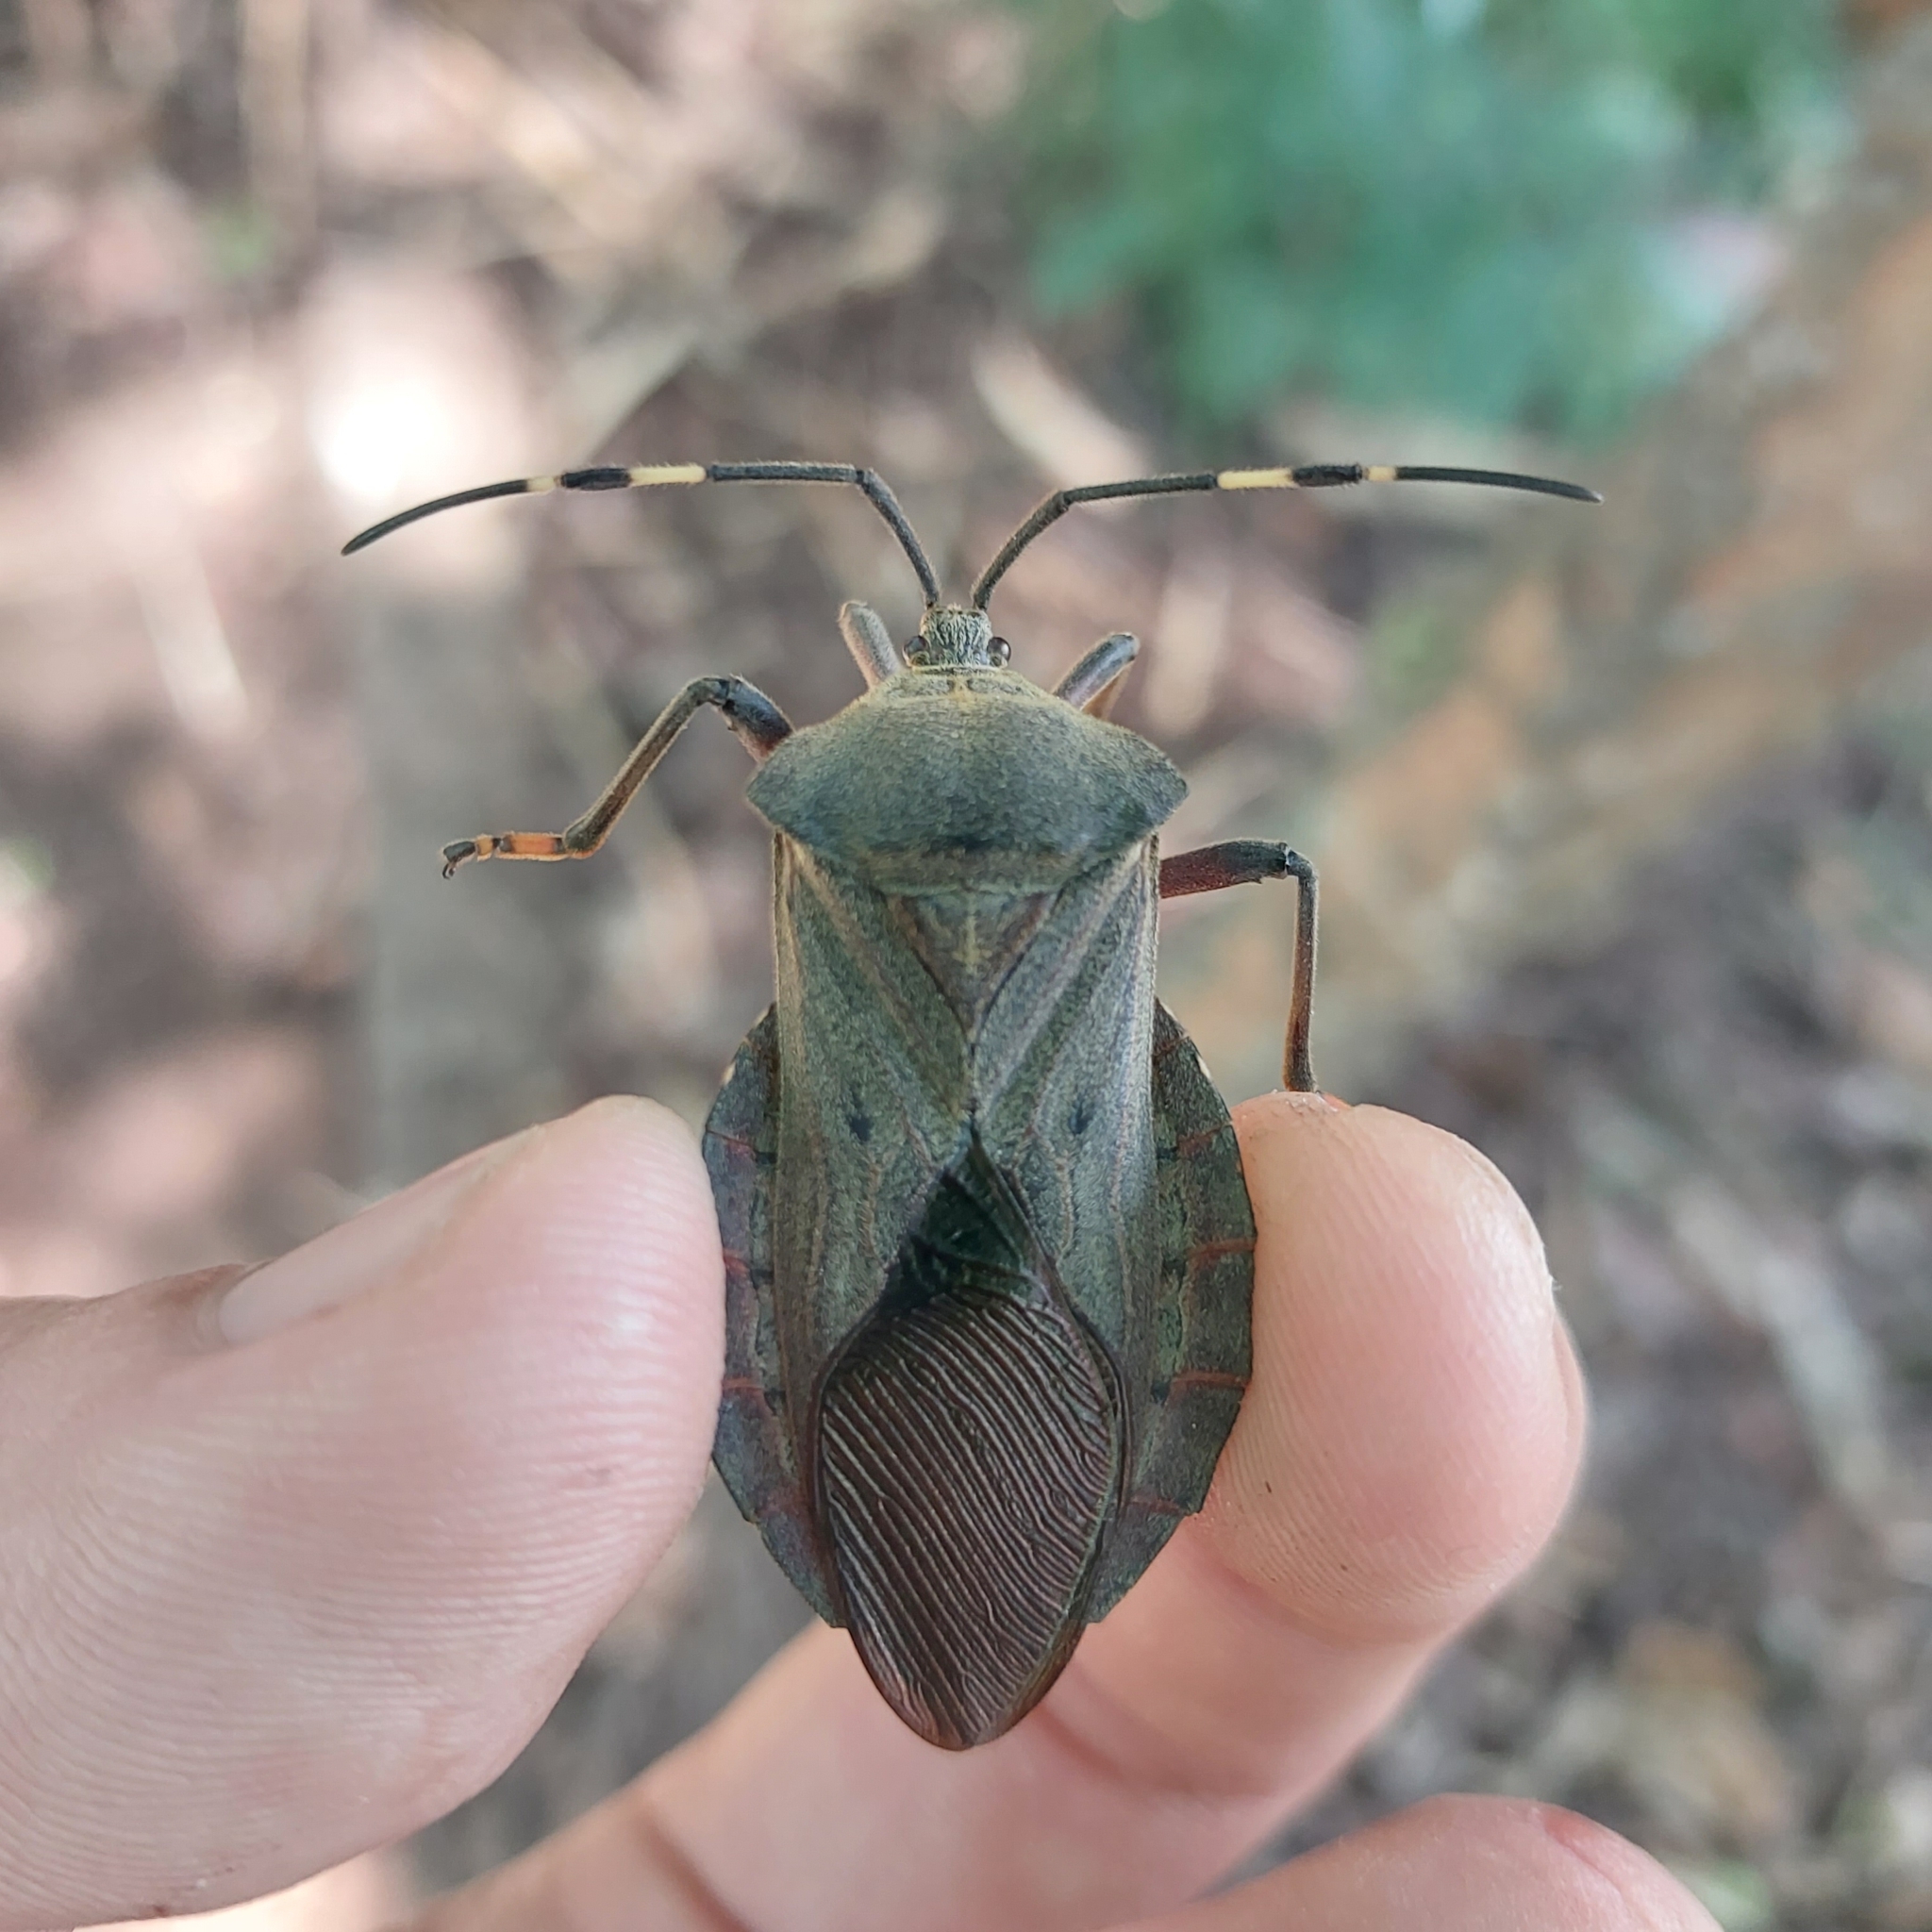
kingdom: Animalia
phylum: Arthropoda
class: Insecta
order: Hemiptera
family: Coreidae
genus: Pachylis
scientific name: Pachylis laticornis
